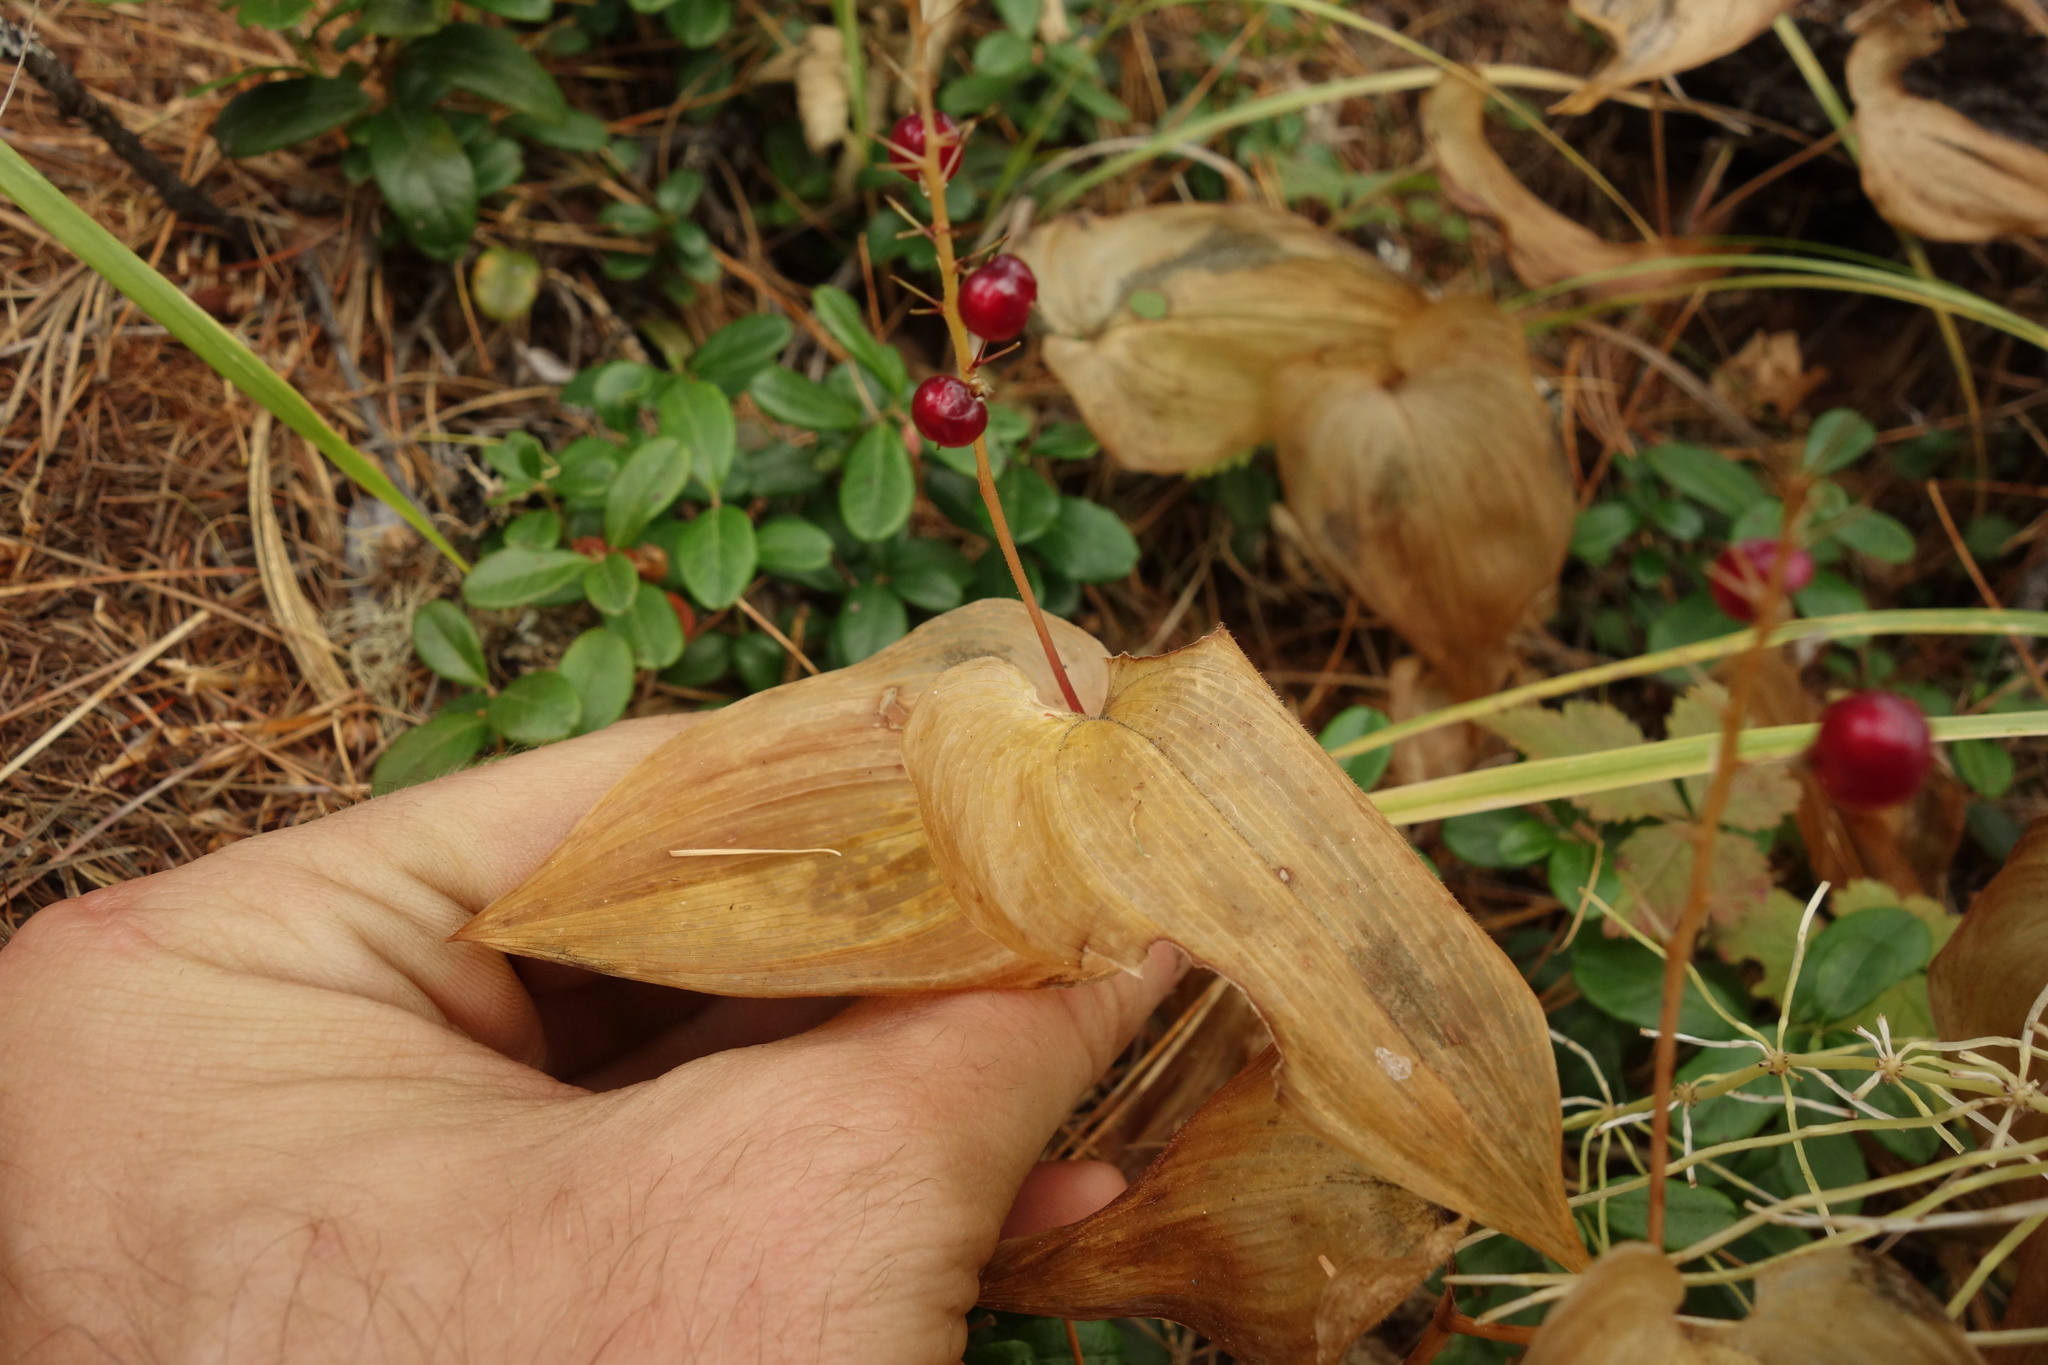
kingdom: Plantae
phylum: Tracheophyta
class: Liliopsida
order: Asparagales
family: Asparagaceae
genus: Maianthemum
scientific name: Maianthemum bifolium
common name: May lily
